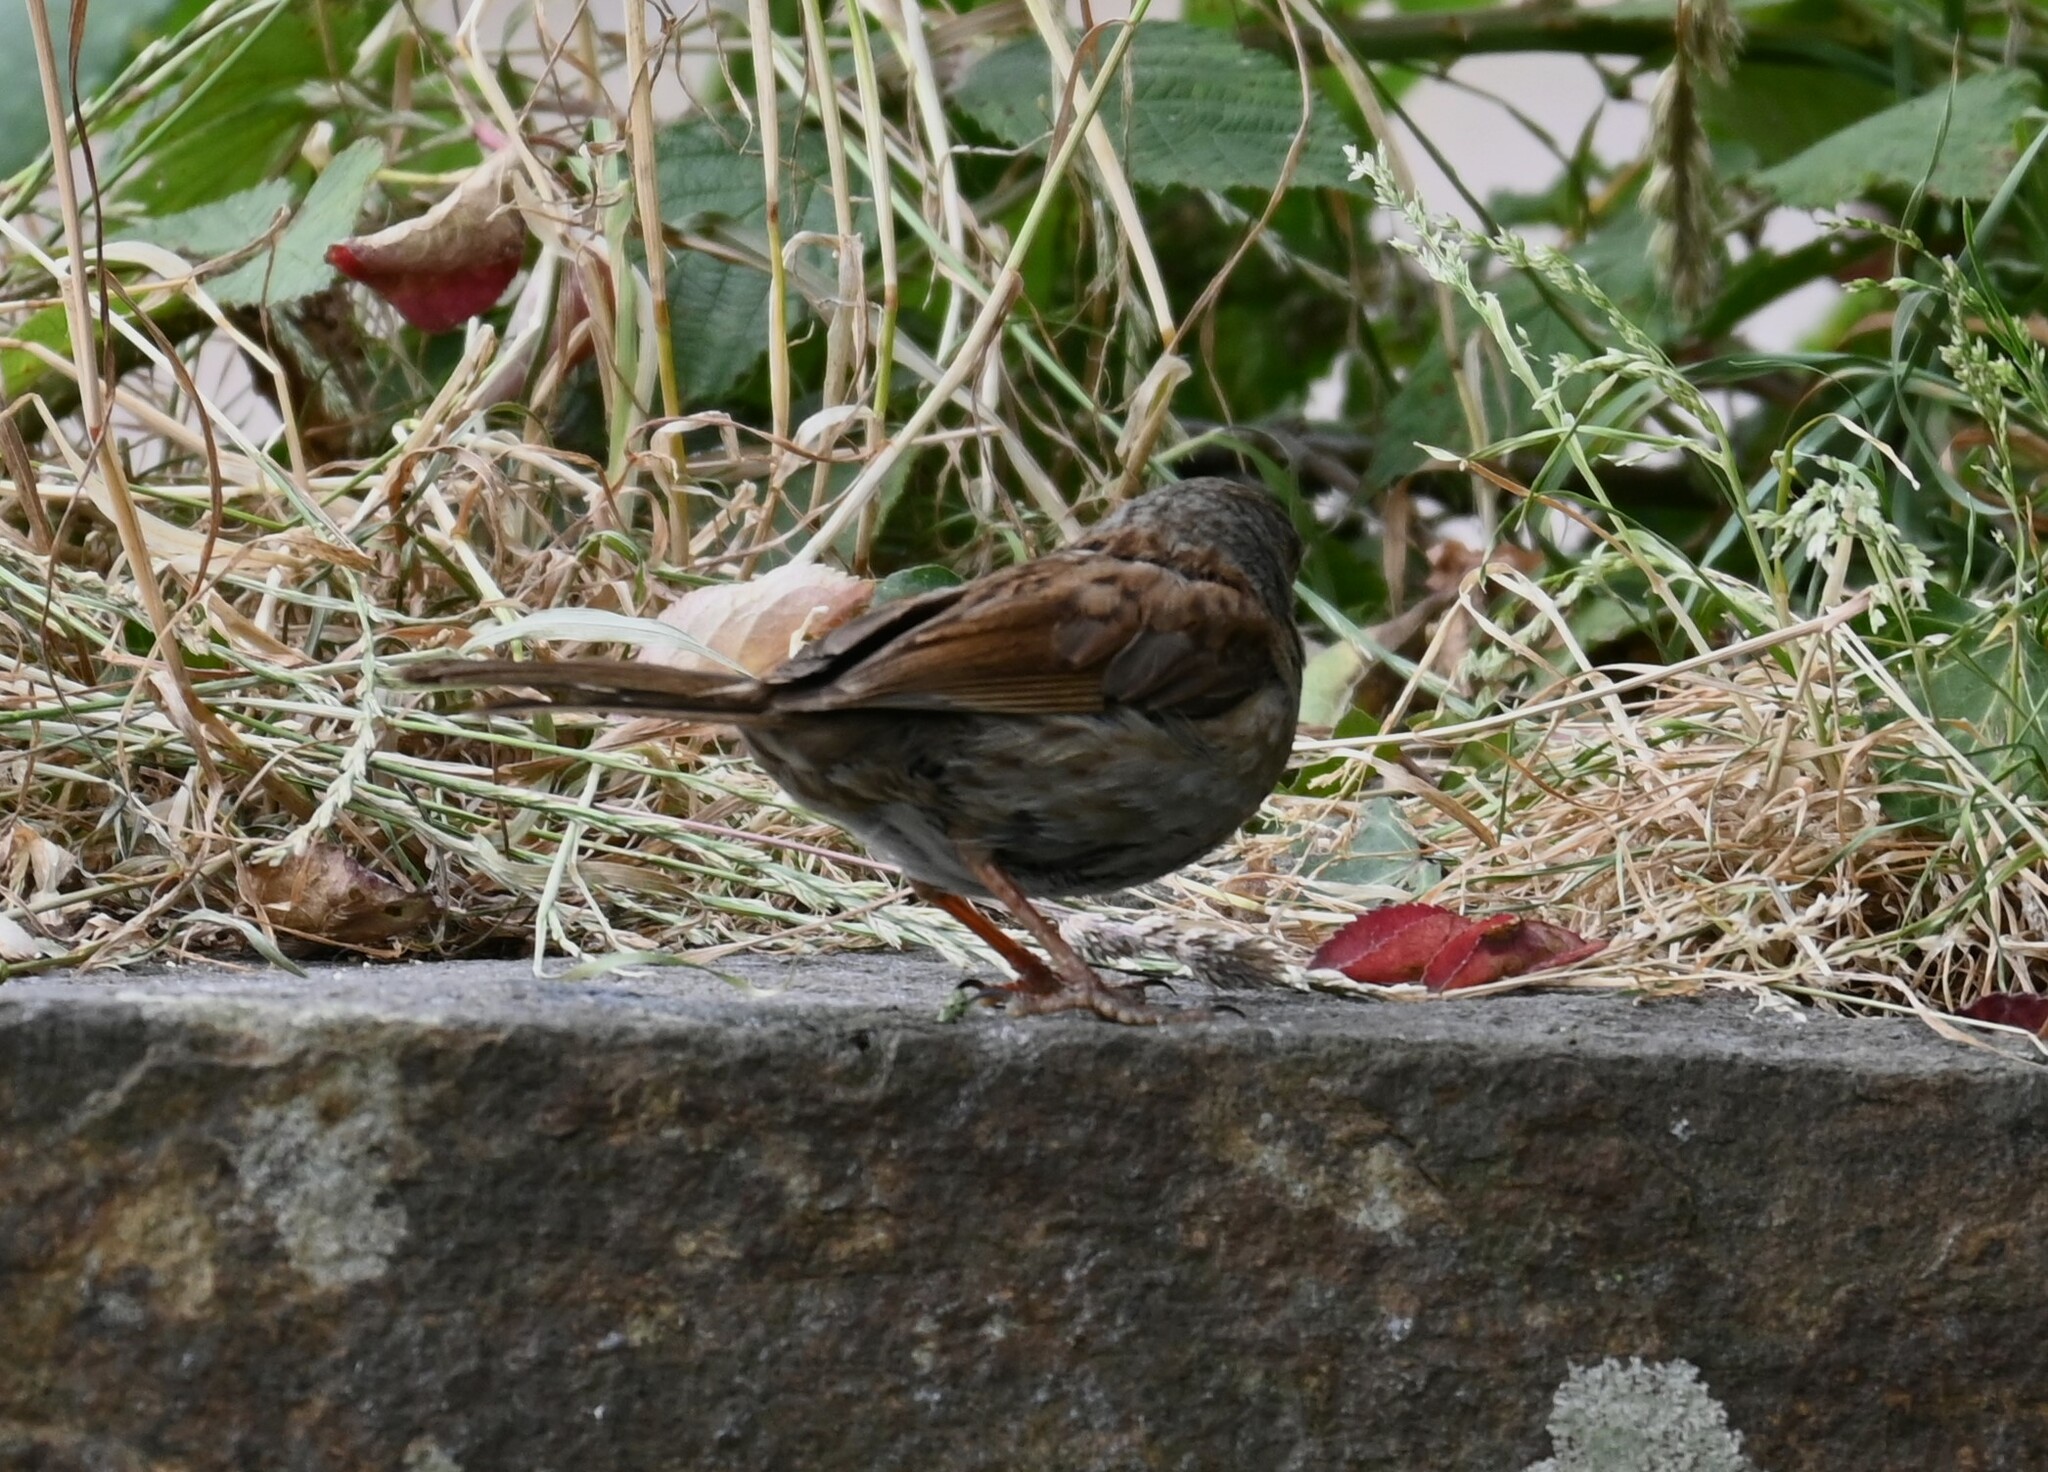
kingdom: Animalia
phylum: Chordata
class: Aves
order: Passeriformes
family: Prunellidae
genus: Prunella
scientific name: Prunella modularis
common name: Dunnock
